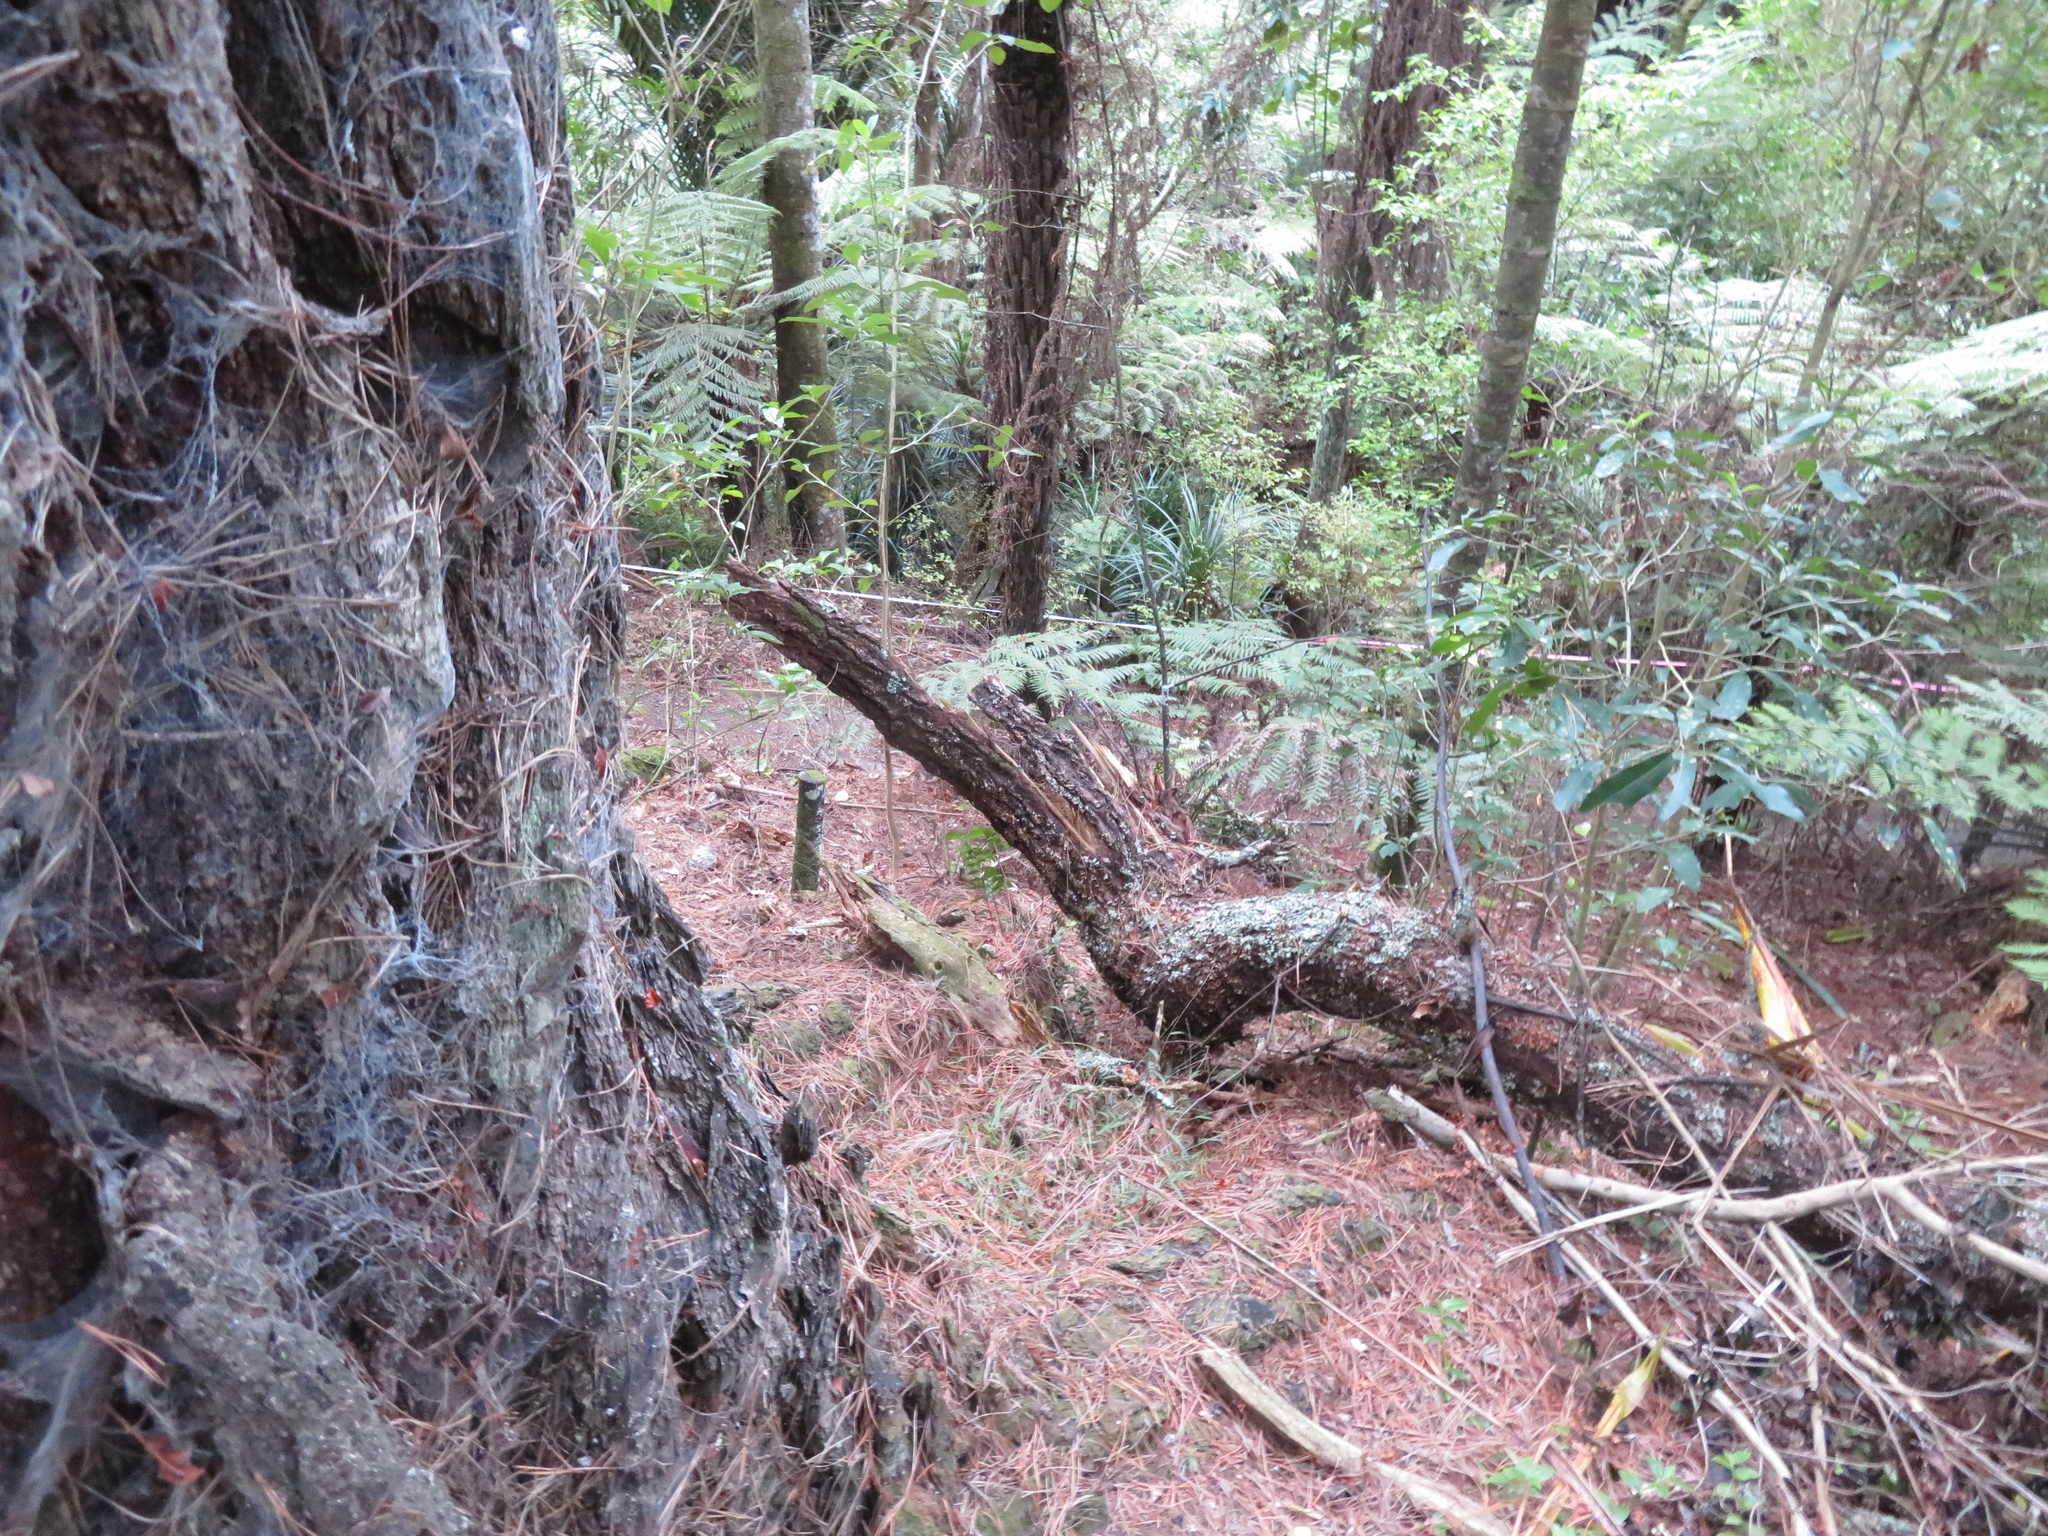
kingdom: Plantae
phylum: Tracheophyta
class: Pinopsida
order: Pinales
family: Pinaceae
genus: Pinus
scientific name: Pinus radiata
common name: Monterey pine
